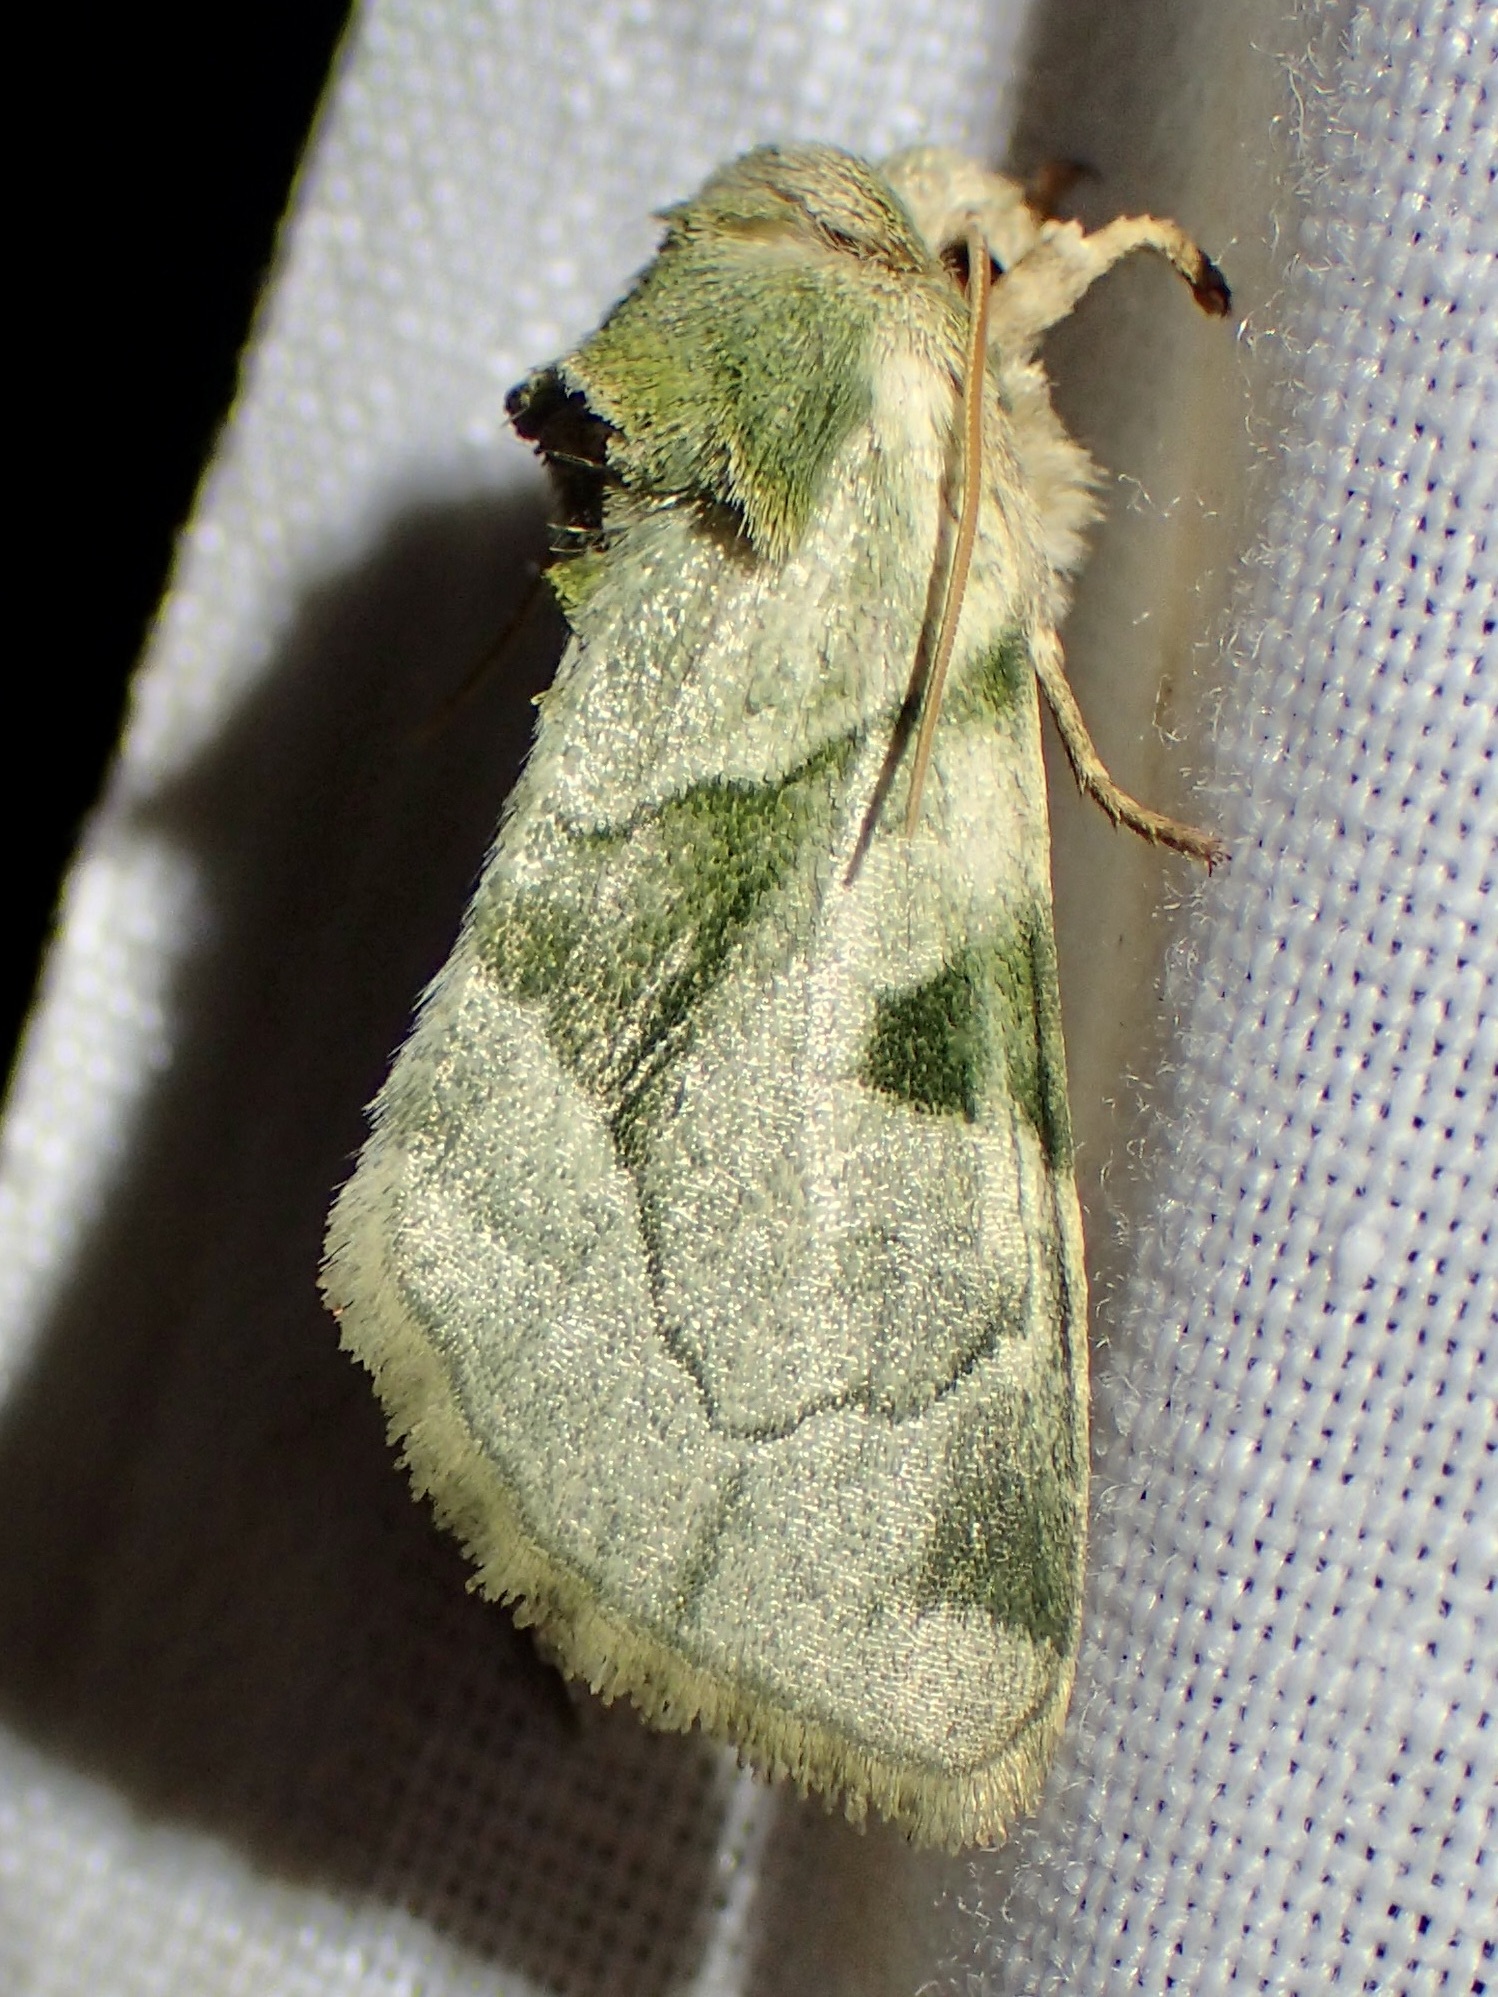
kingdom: Animalia
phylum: Arthropoda
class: Insecta
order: Lepidoptera
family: Noctuidae
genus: Oslaria
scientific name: Oslaria viridifera
